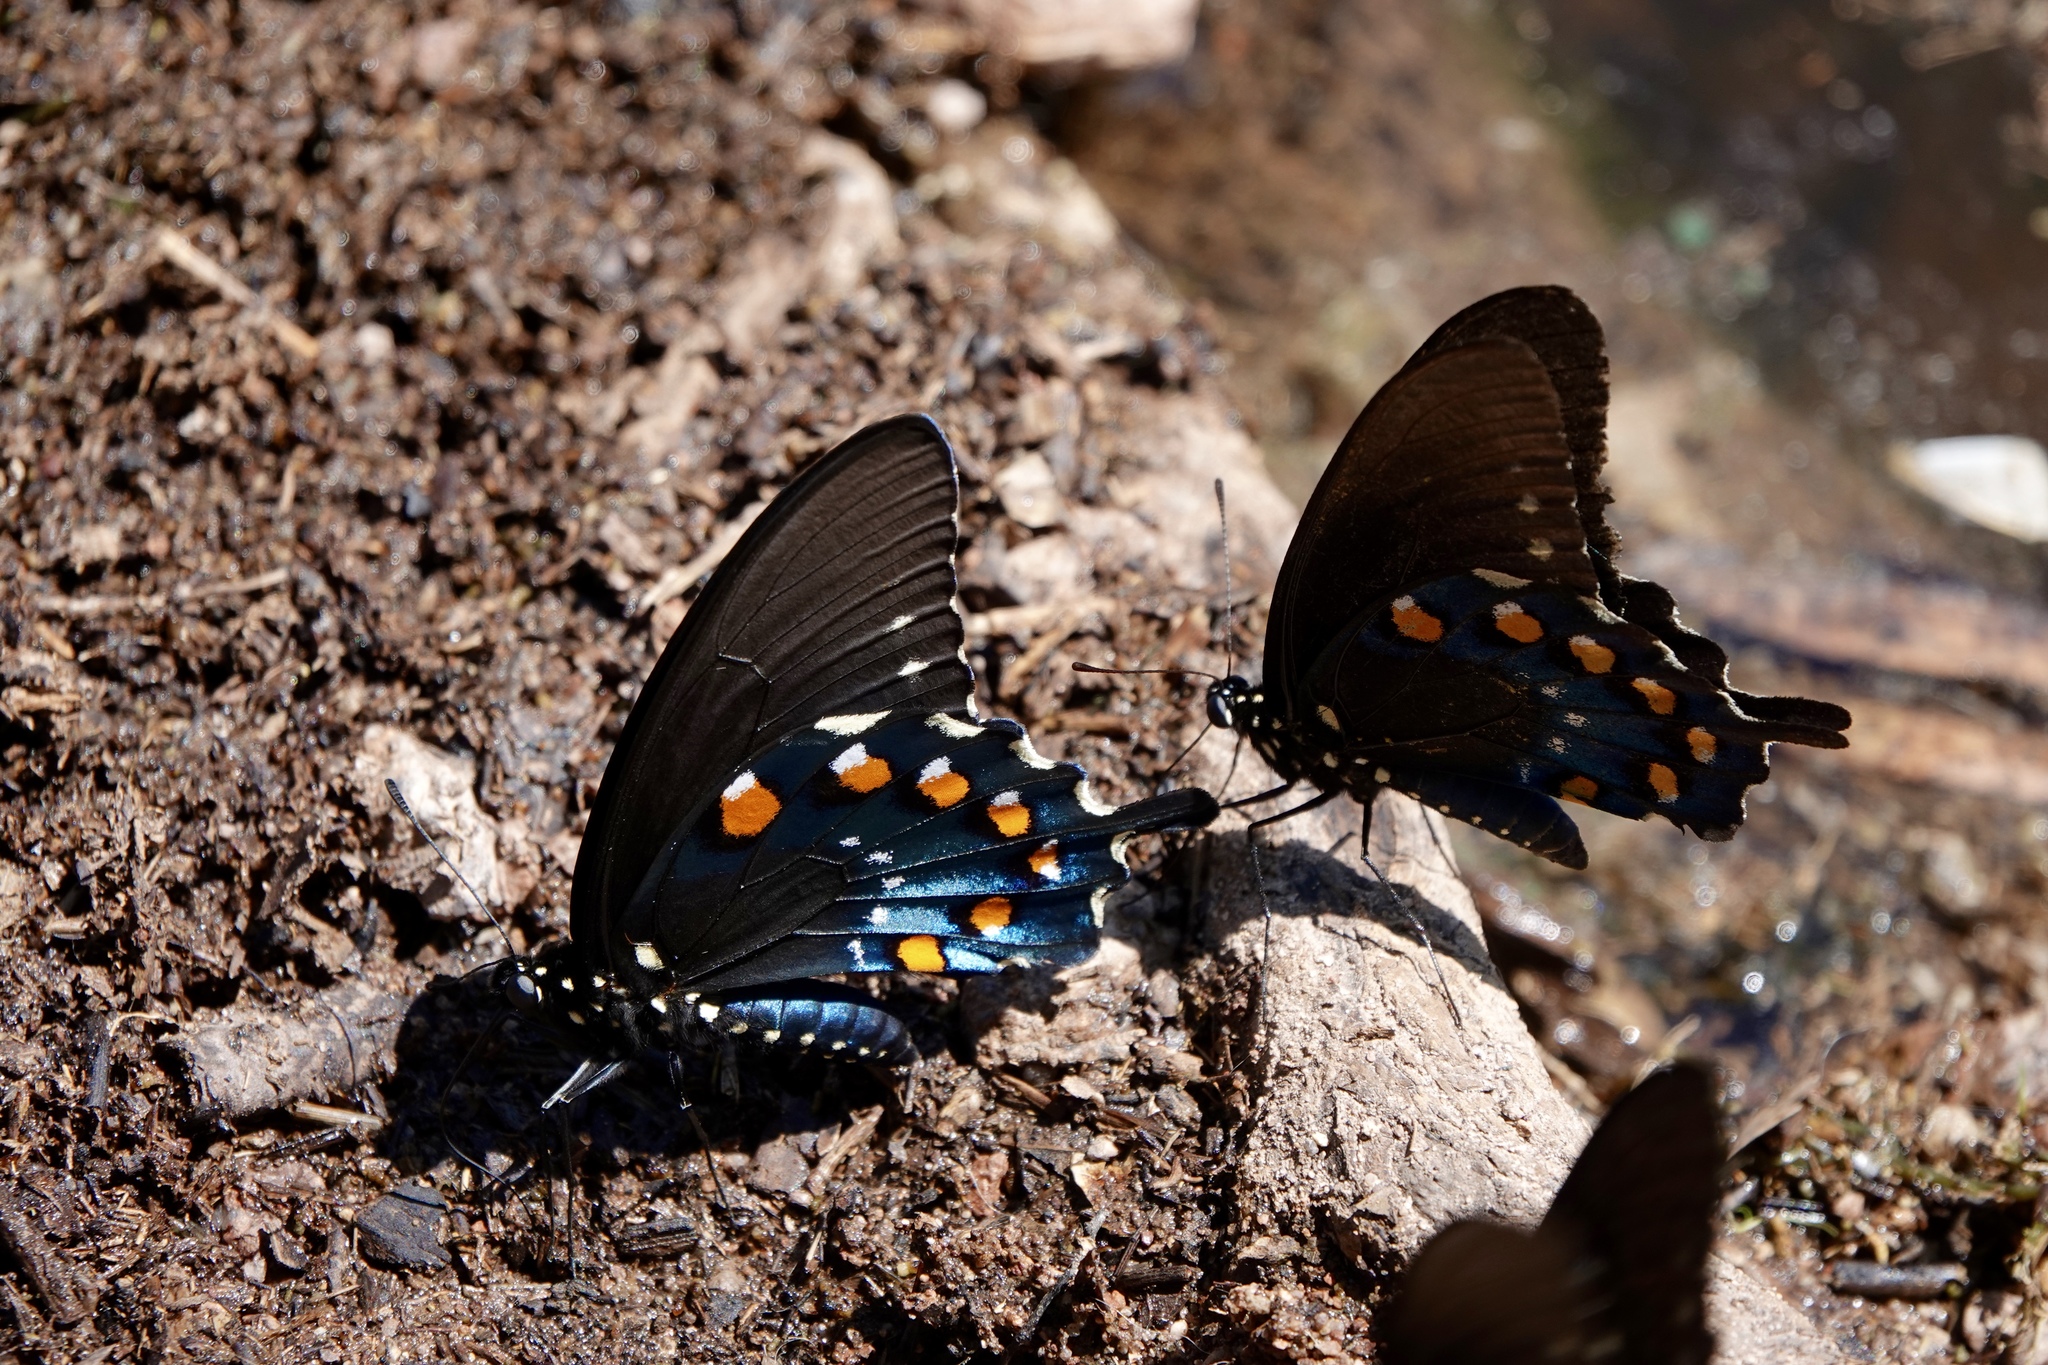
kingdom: Animalia
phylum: Arthropoda
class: Insecta
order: Lepidoptera
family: Papilionidae
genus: Battus
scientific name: Battus philenor
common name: Pipevine swallowtail
